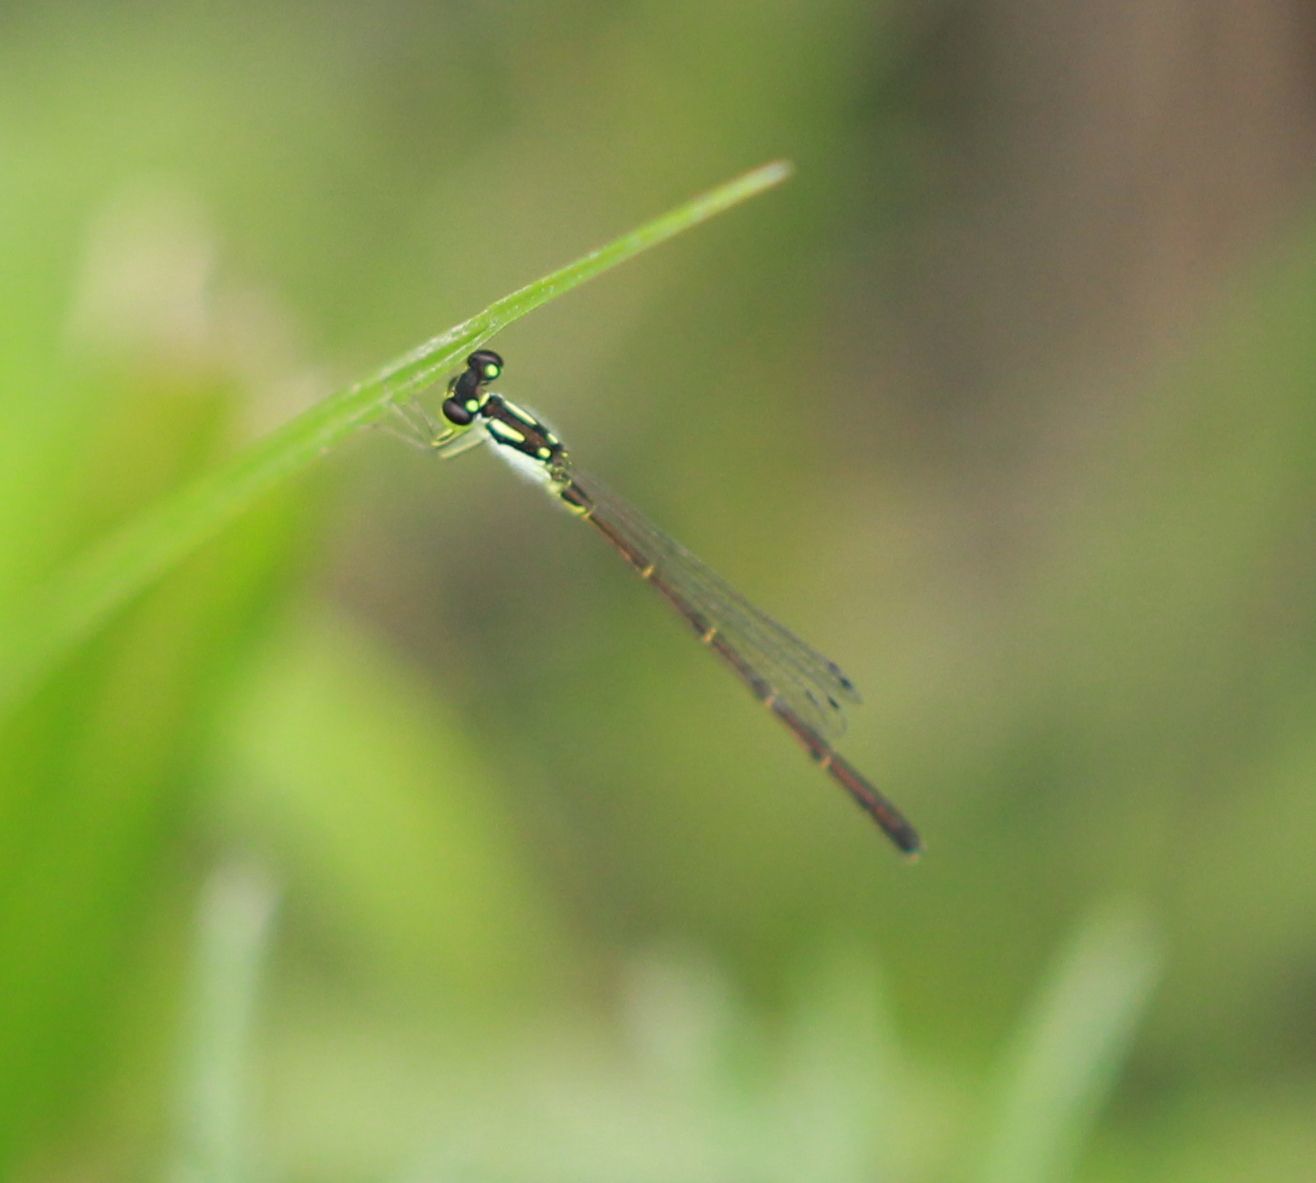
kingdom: Animalia
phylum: Arthropoda
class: Insecta
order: Odonata
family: Coenagrionidae
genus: Ischnura
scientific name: Ischnura posita
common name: Fragile forktail
